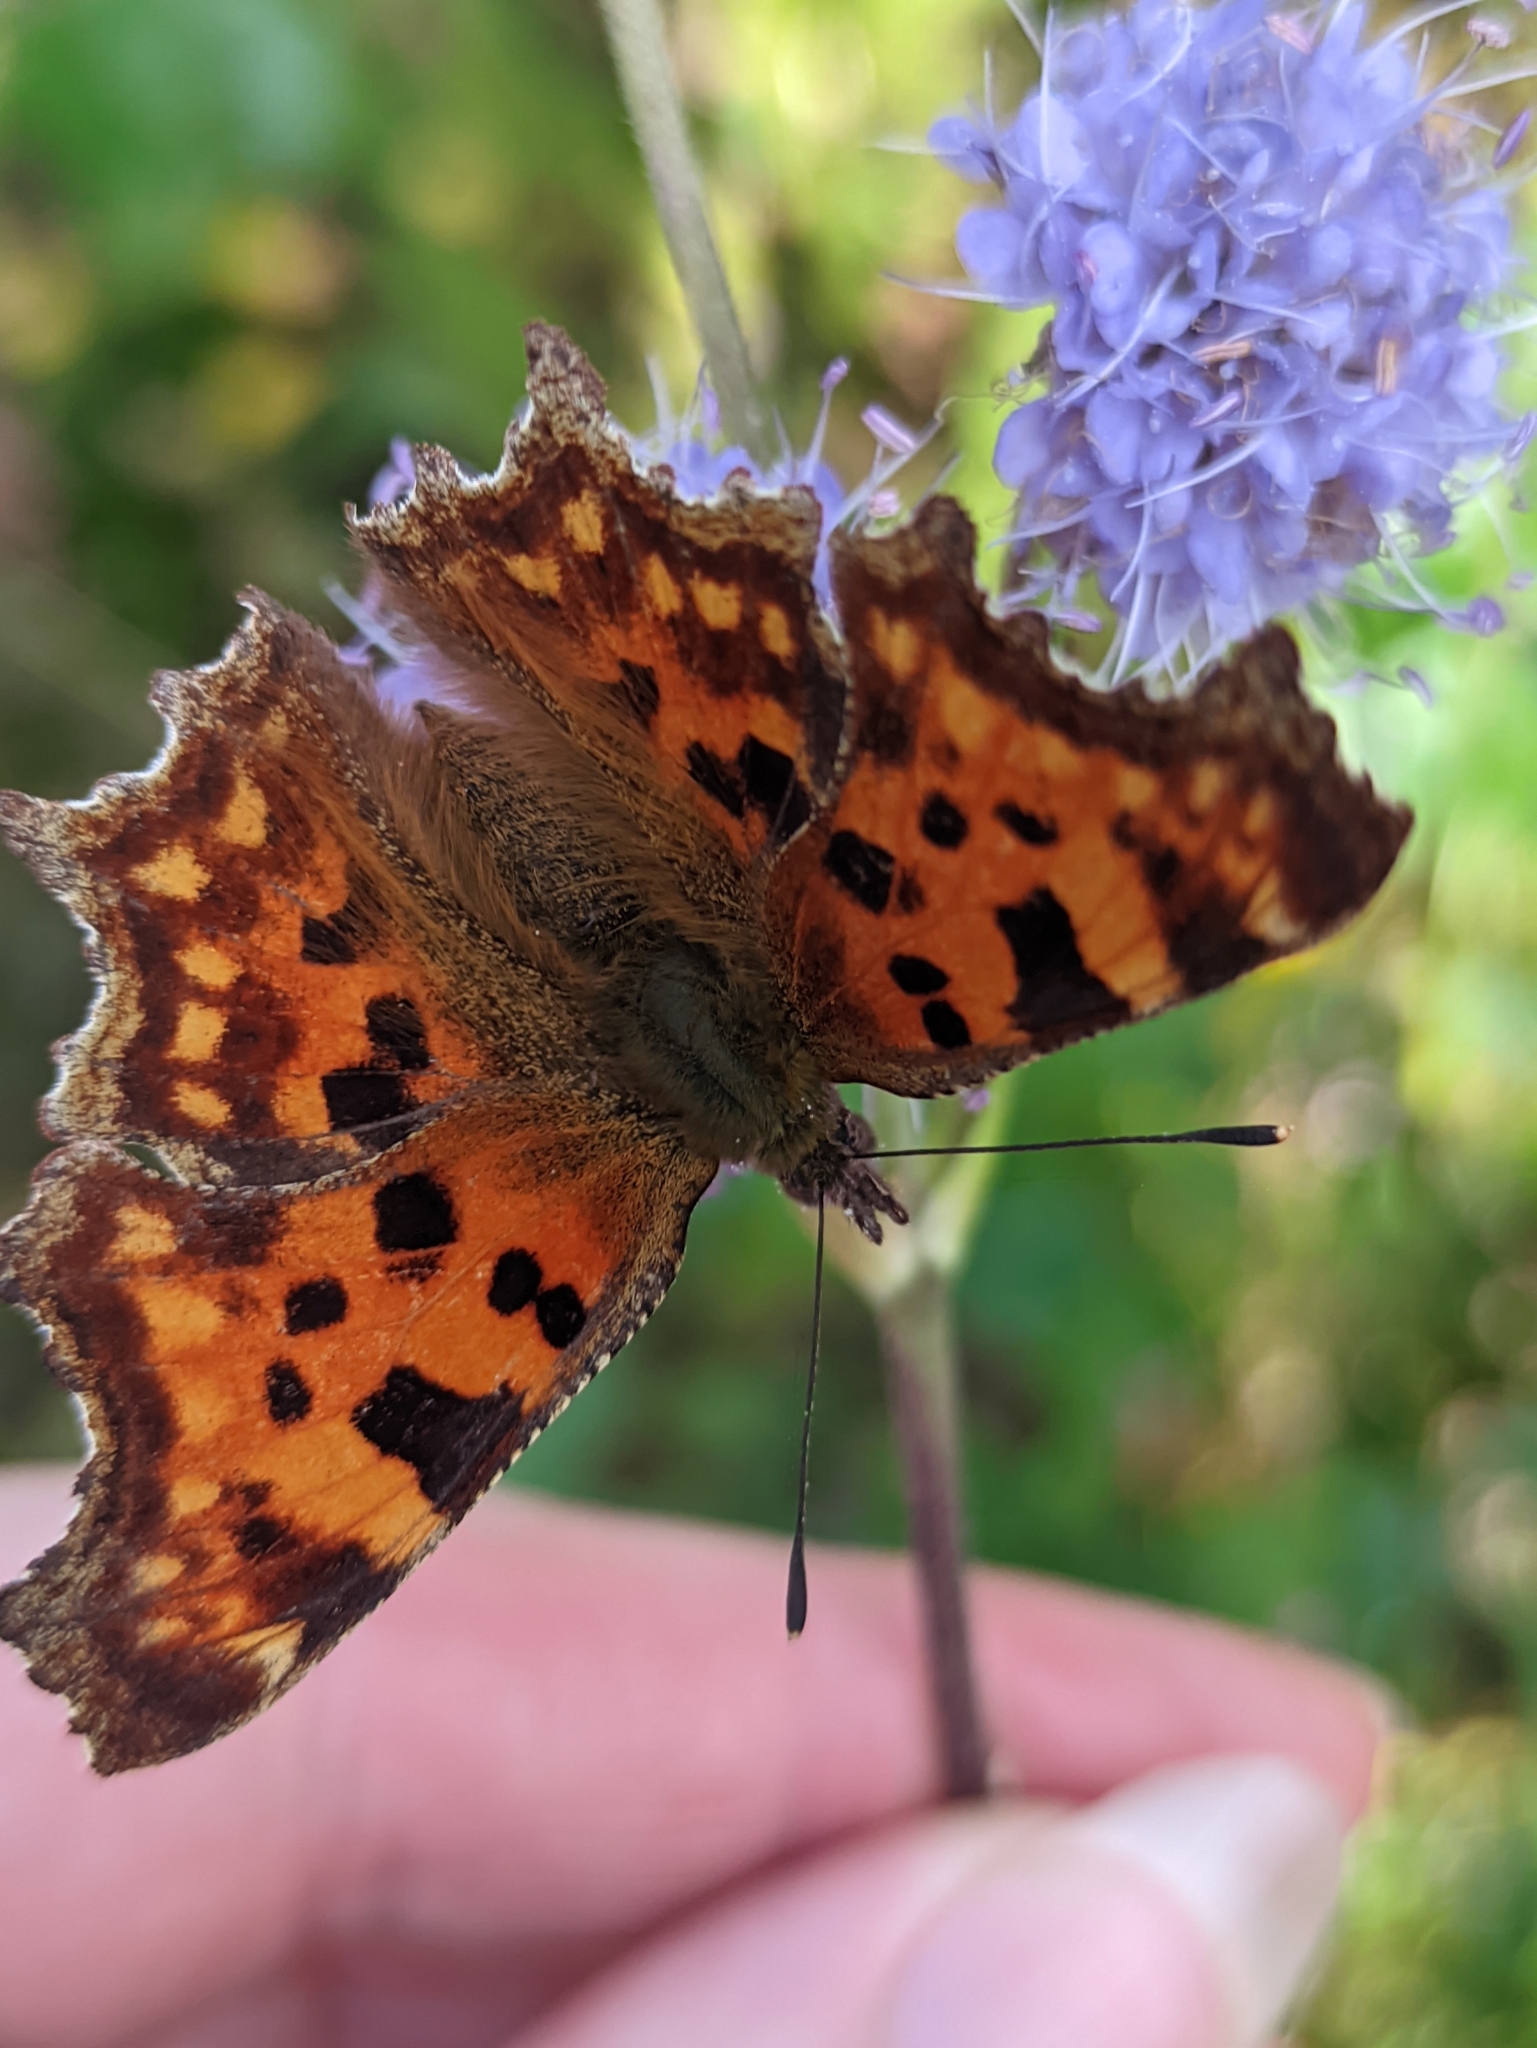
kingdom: Animalia
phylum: Arthropoda
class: Insecta
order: Lepidoptera
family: Nymphalidae
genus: Polygonia
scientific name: Polygonia c-album
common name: Comma
